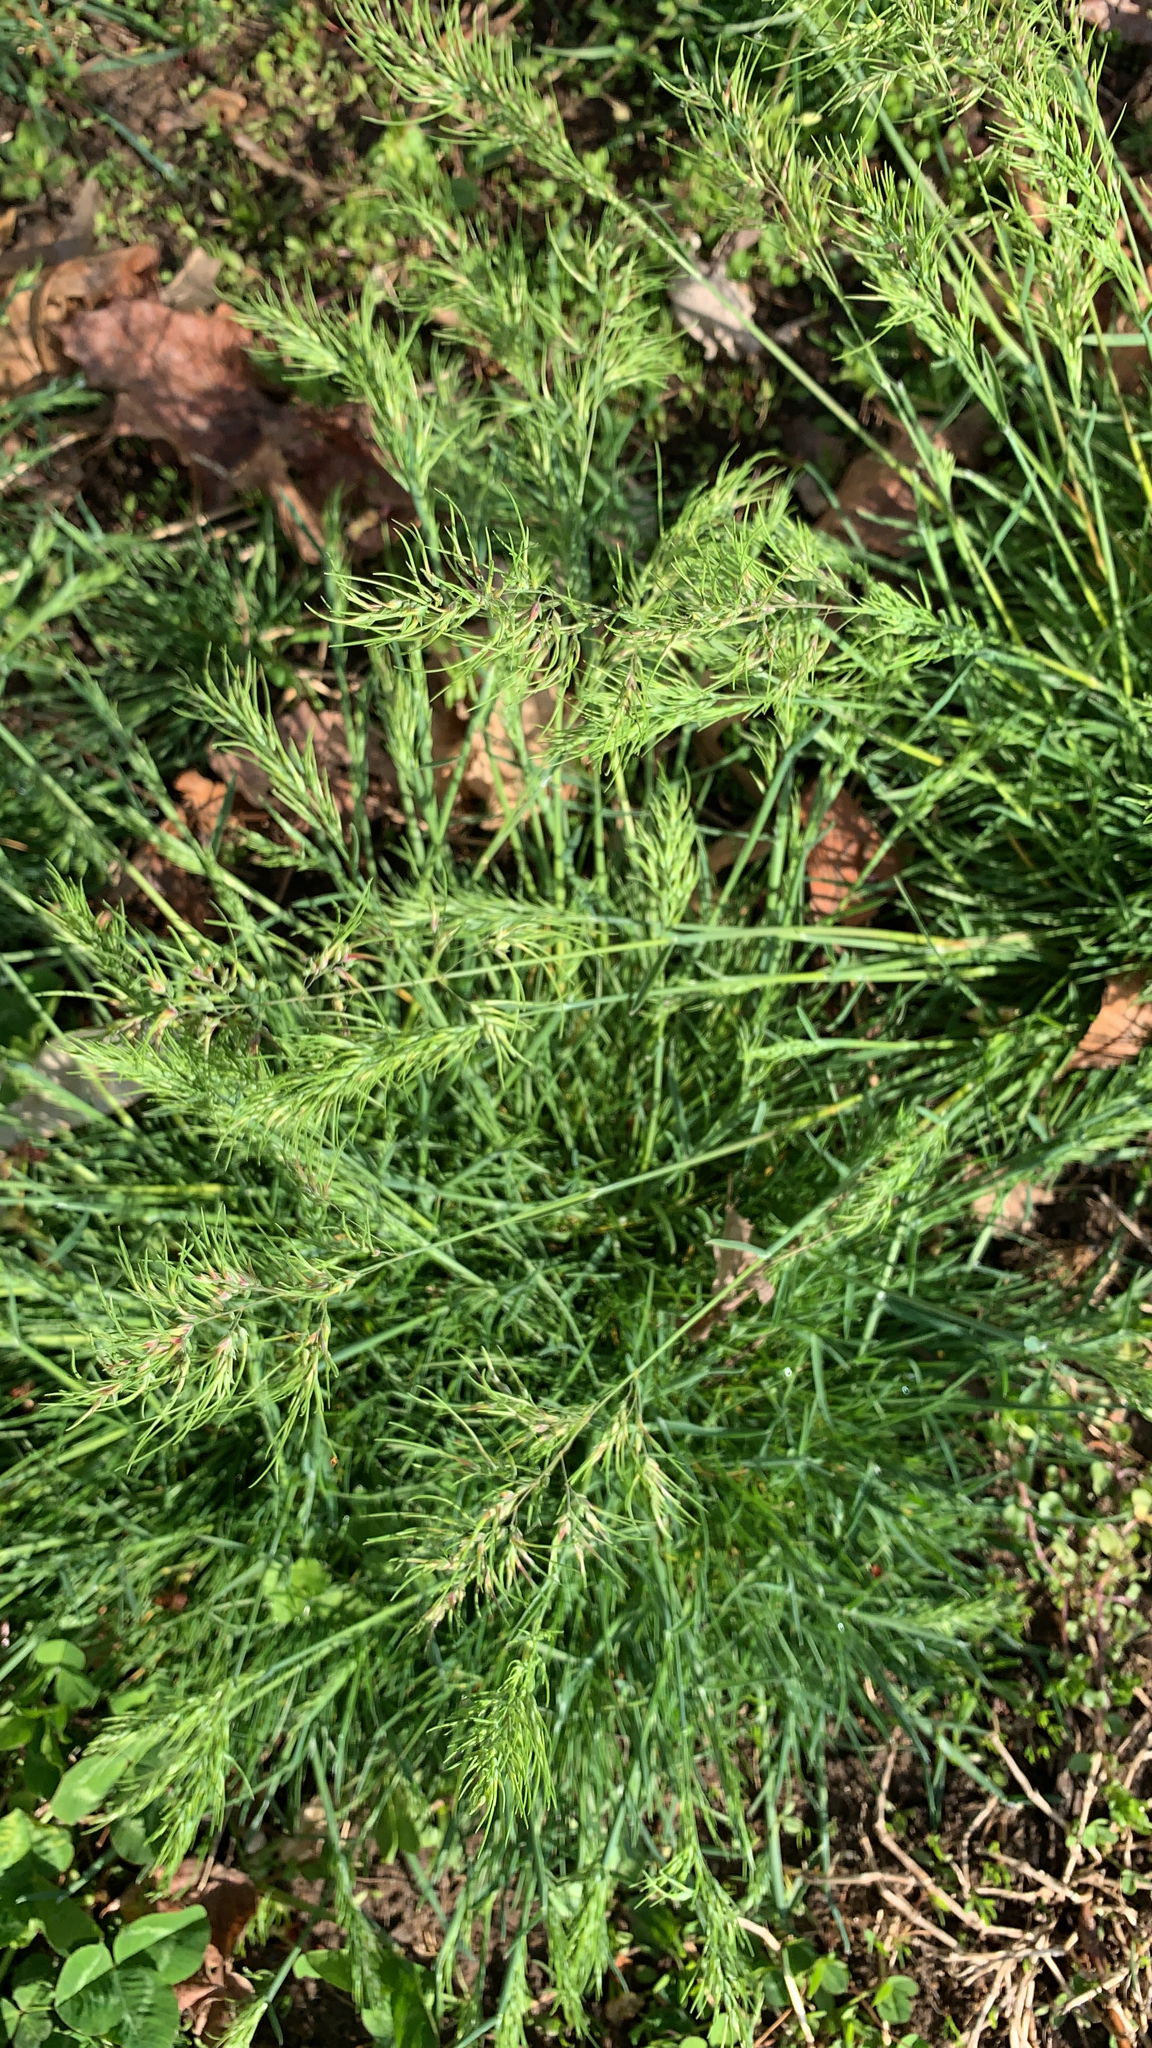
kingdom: Plantae
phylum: Tracheophyta
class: Liliopsida
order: Poales
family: Poaceae
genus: Poa
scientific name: Poa bulbosa
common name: Bulbous bluegrass
